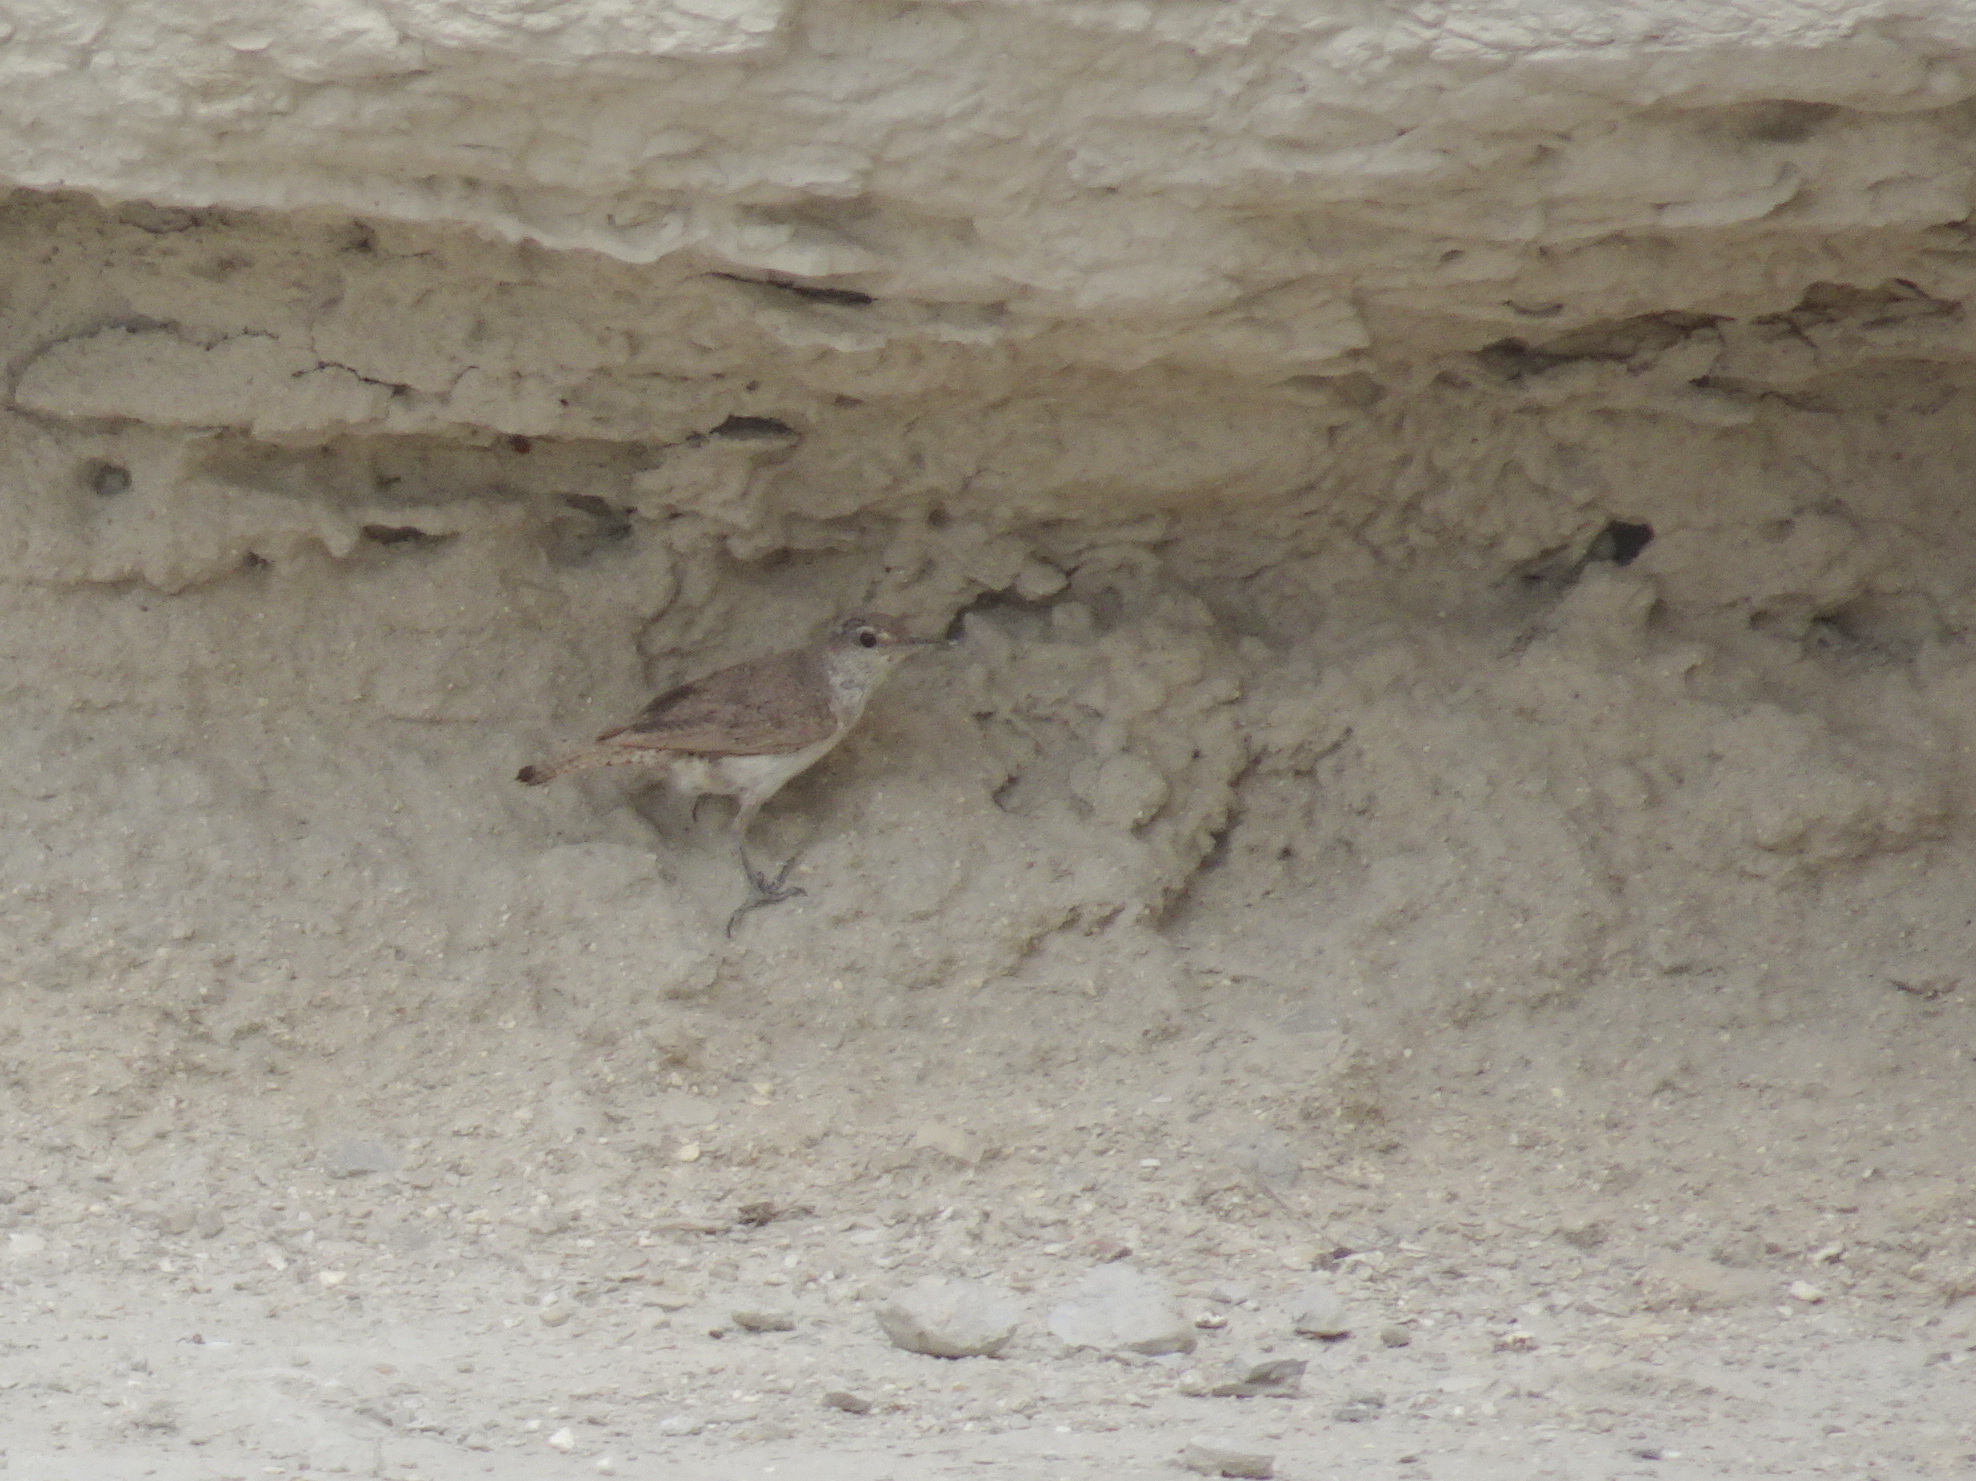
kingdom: Animalia
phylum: Chordata
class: Aves
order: Passeriformes
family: Troglodytidae
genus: Salpinctes
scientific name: Salpinctes obsoletus
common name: Rock wren
